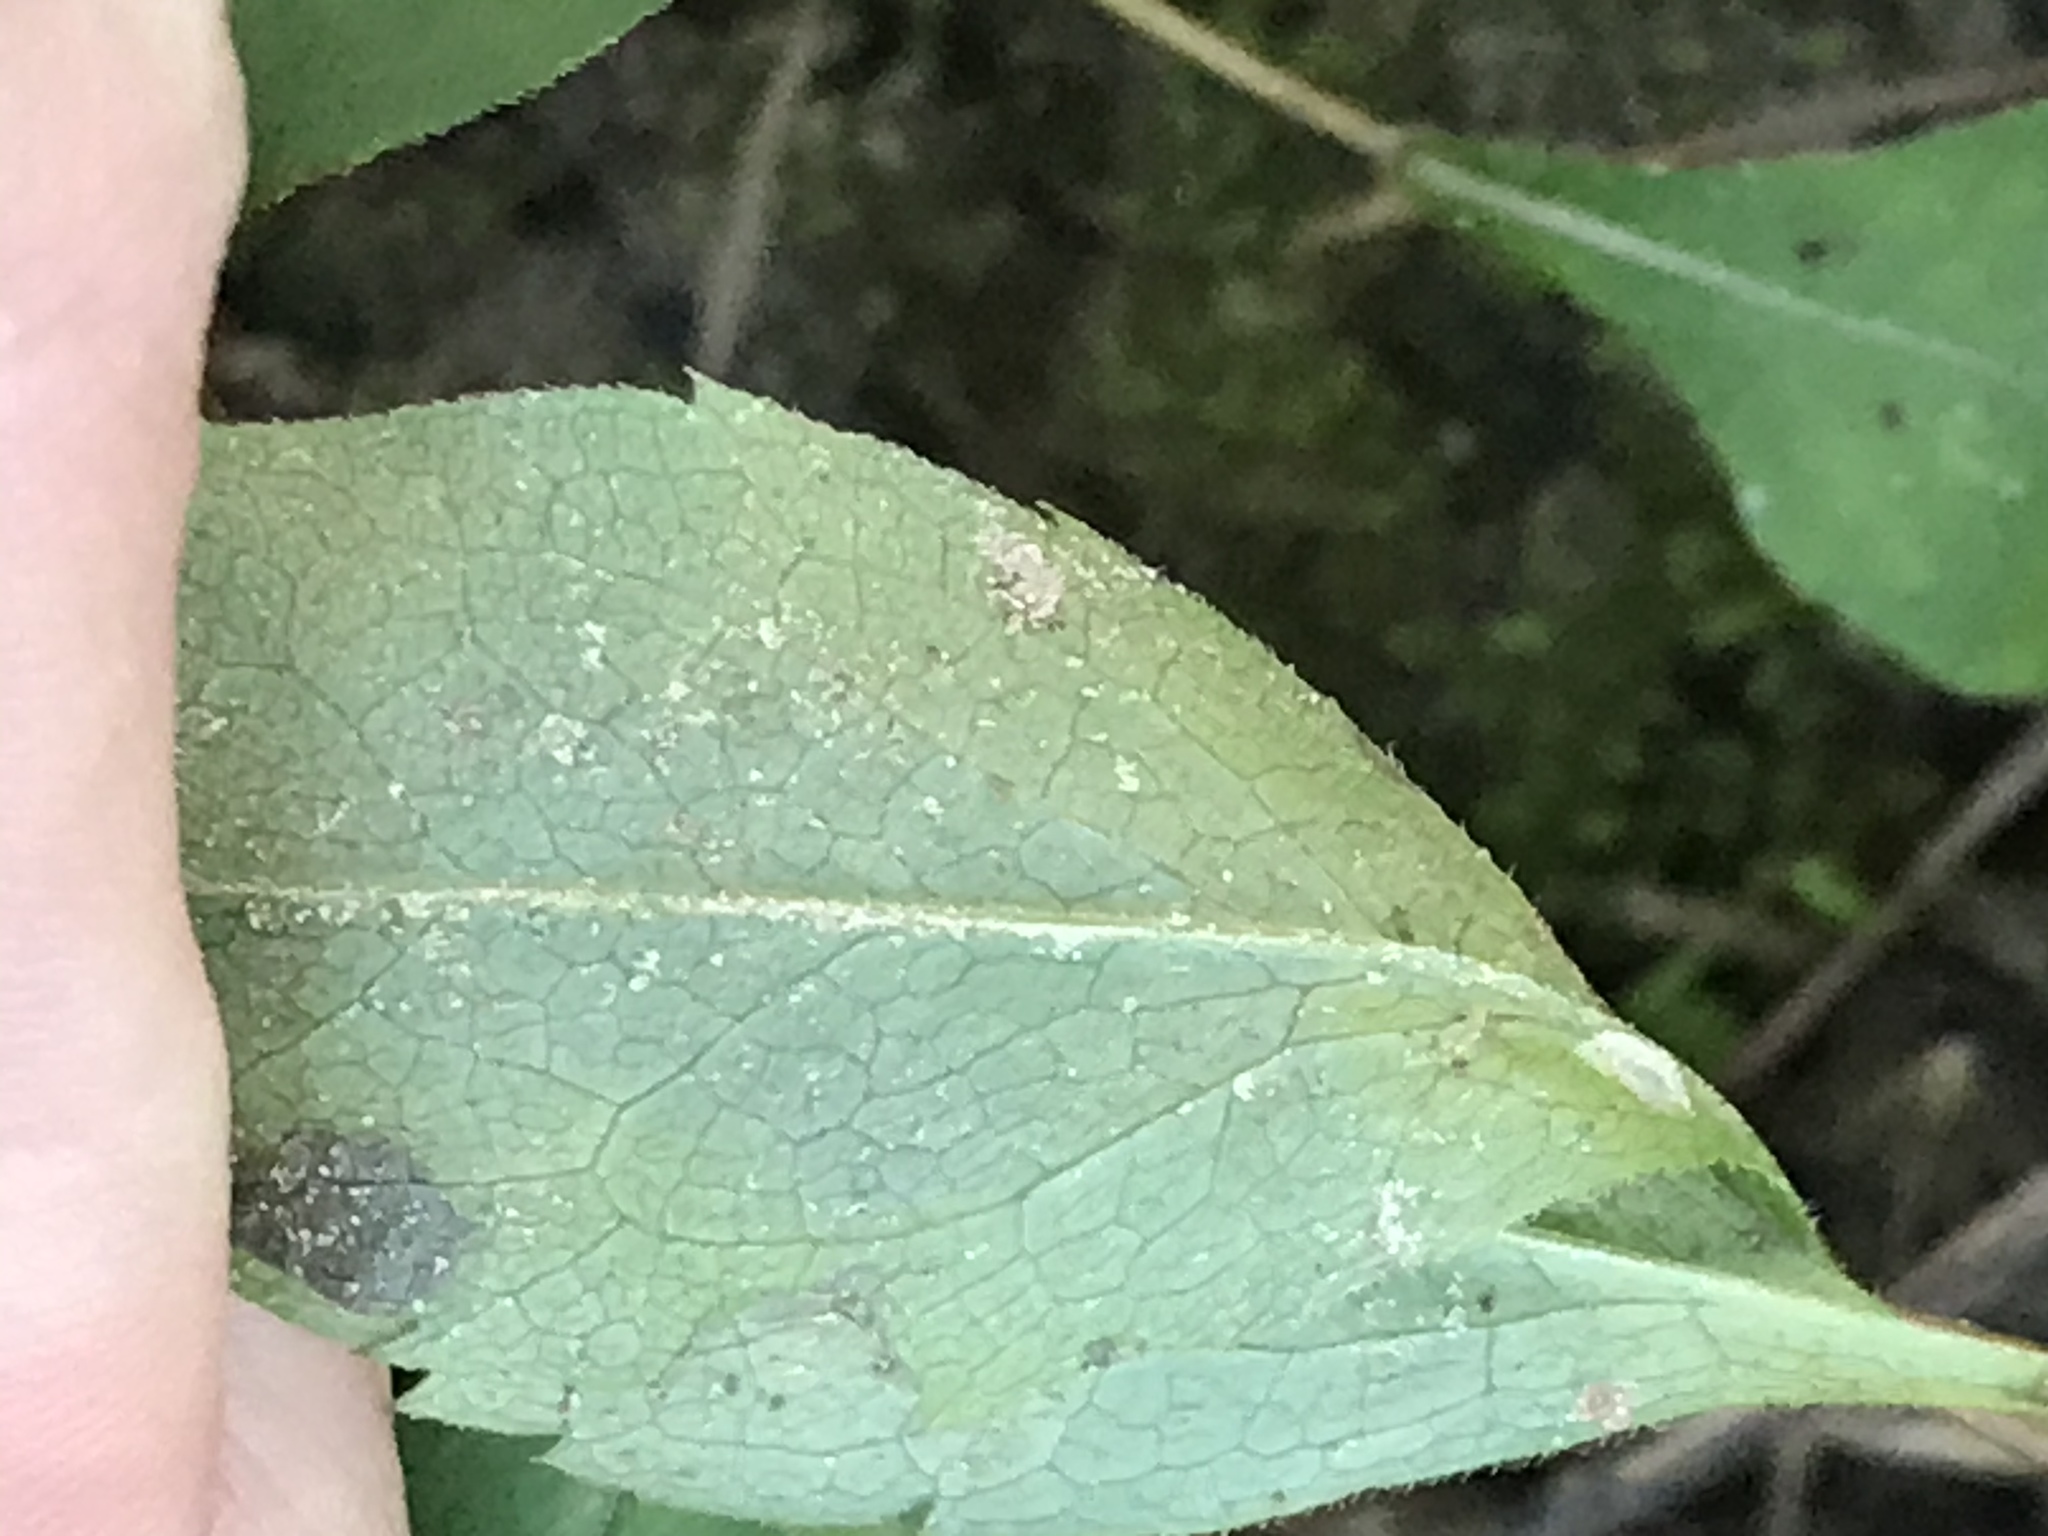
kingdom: Plantae
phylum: Tracheophyta
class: Magnoliopsida
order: Asterales
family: Asteraceae
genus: Solidago
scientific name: Solidago caesia
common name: Woodland goldenrod
